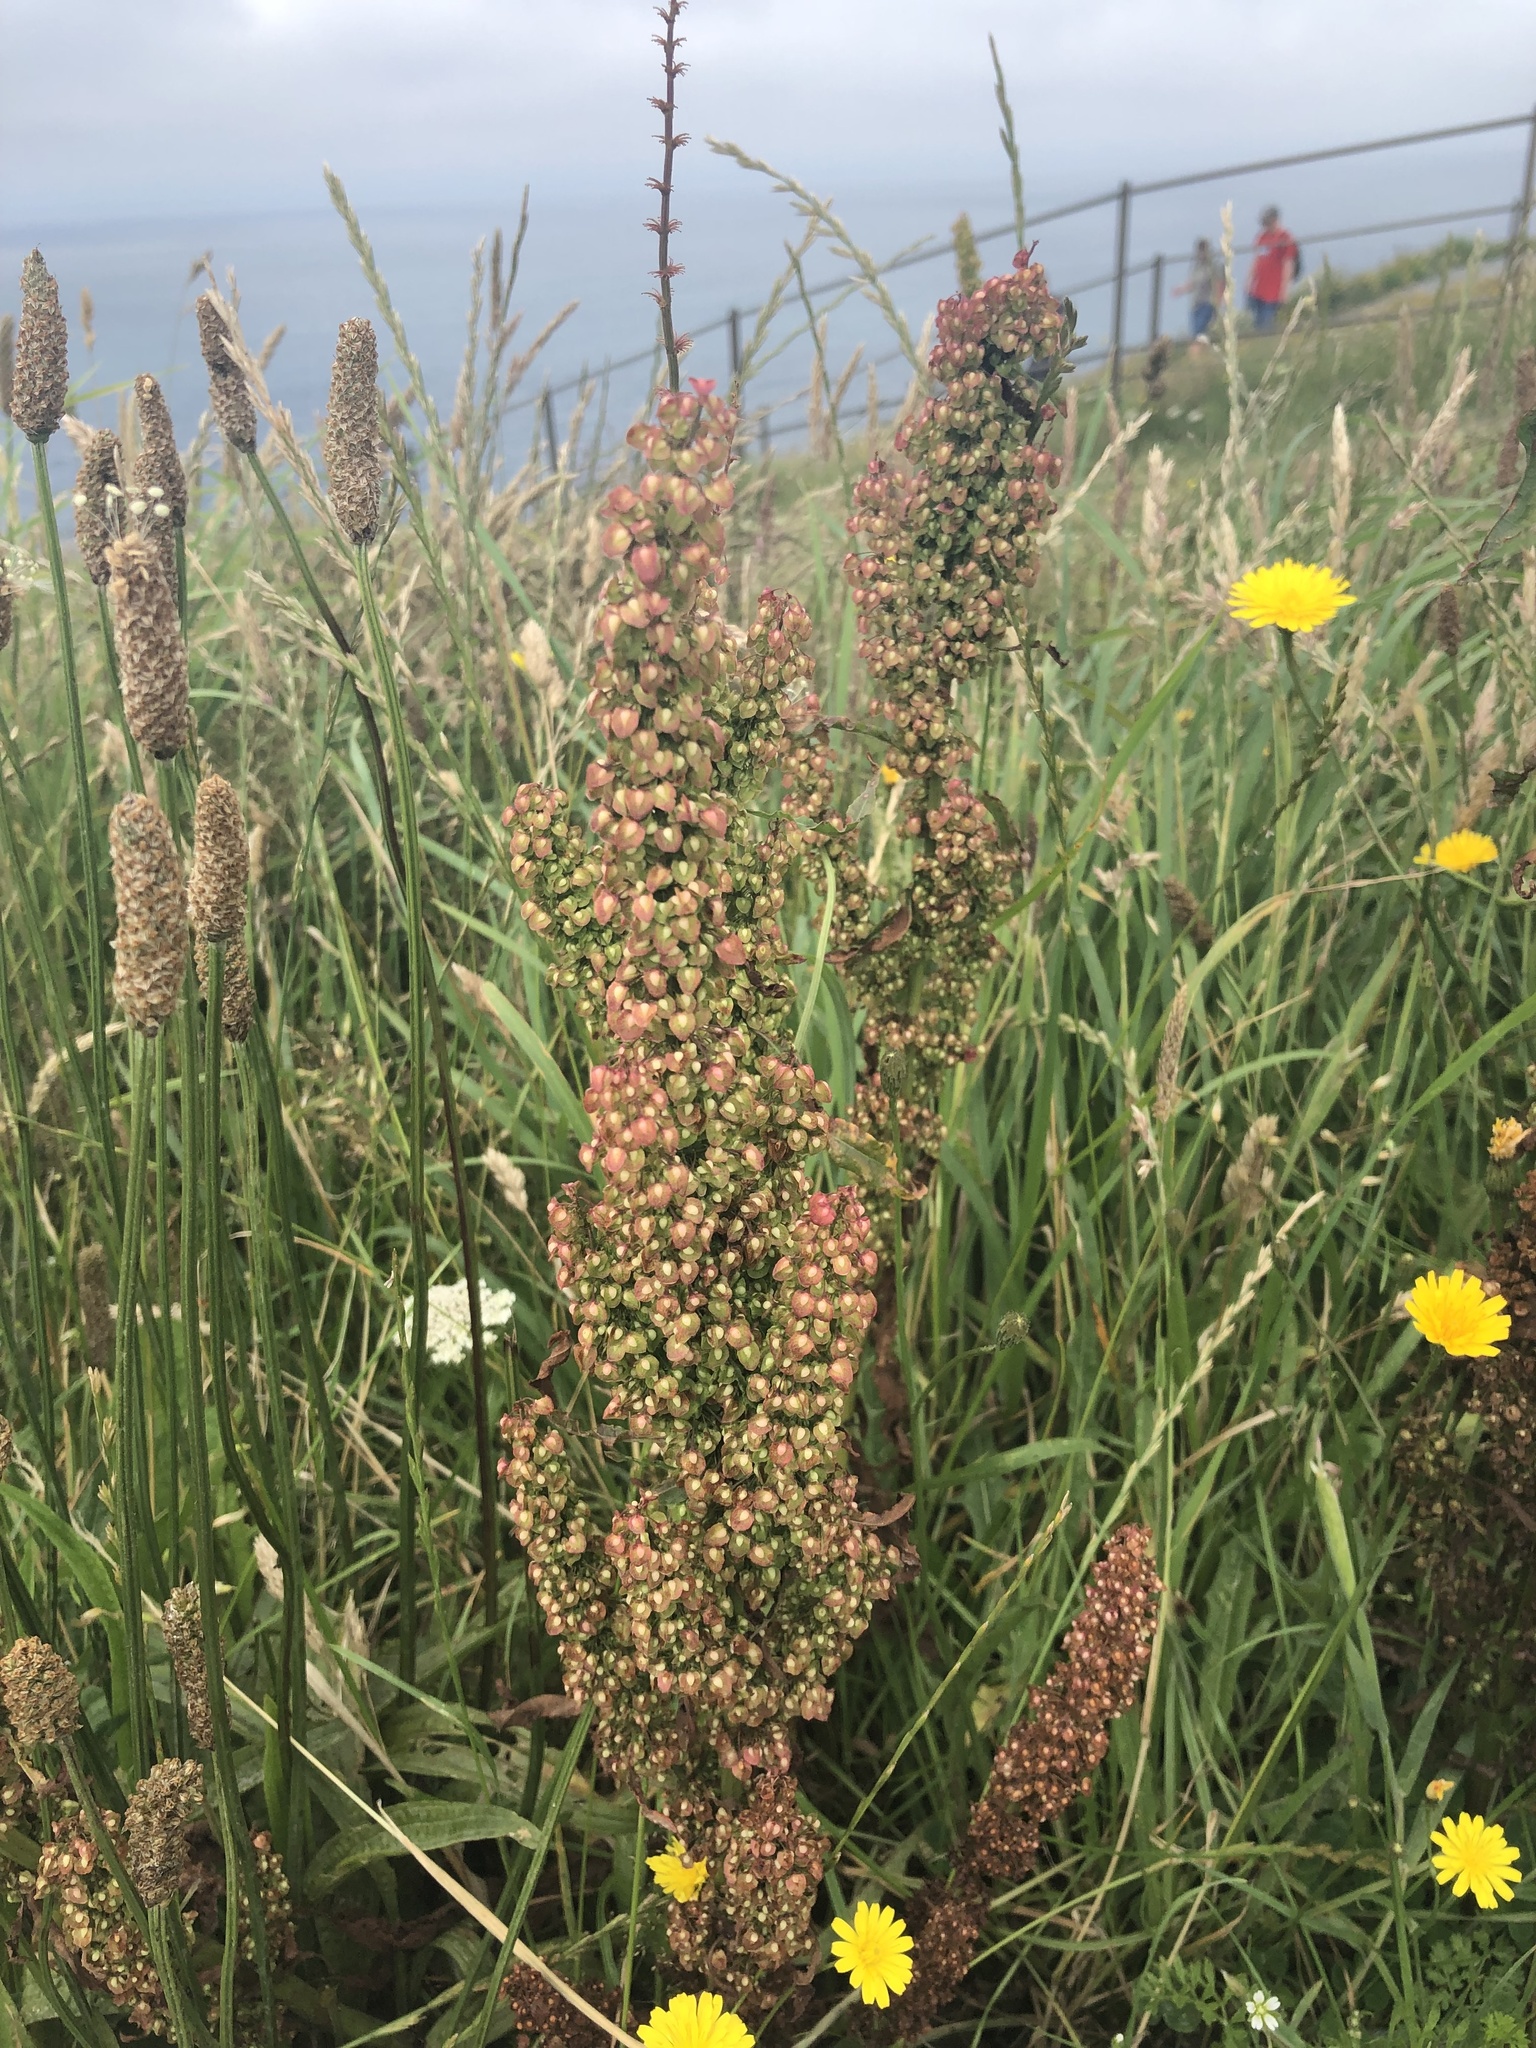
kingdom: Plantae
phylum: Tracheophyta
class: Magnoliopsida
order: Caryophyllales
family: Polygonaceae
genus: Rumex
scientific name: Rumex crispus
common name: Curled dock
